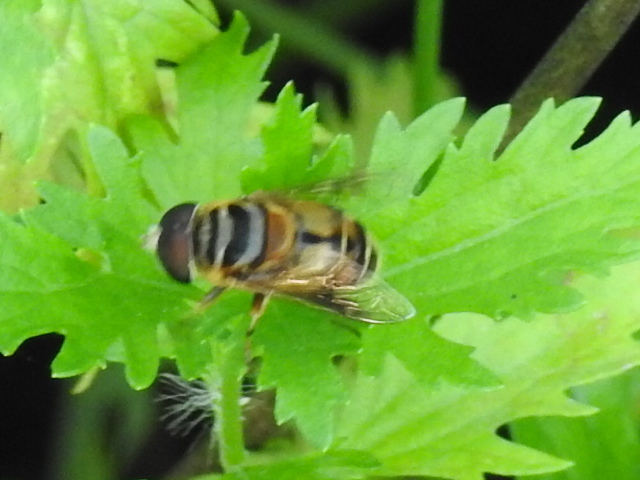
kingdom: Animalia
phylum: Arthropoda
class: Insecta
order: Diptera
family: Syrphidae
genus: Palpada
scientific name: Palpada vinetorum
